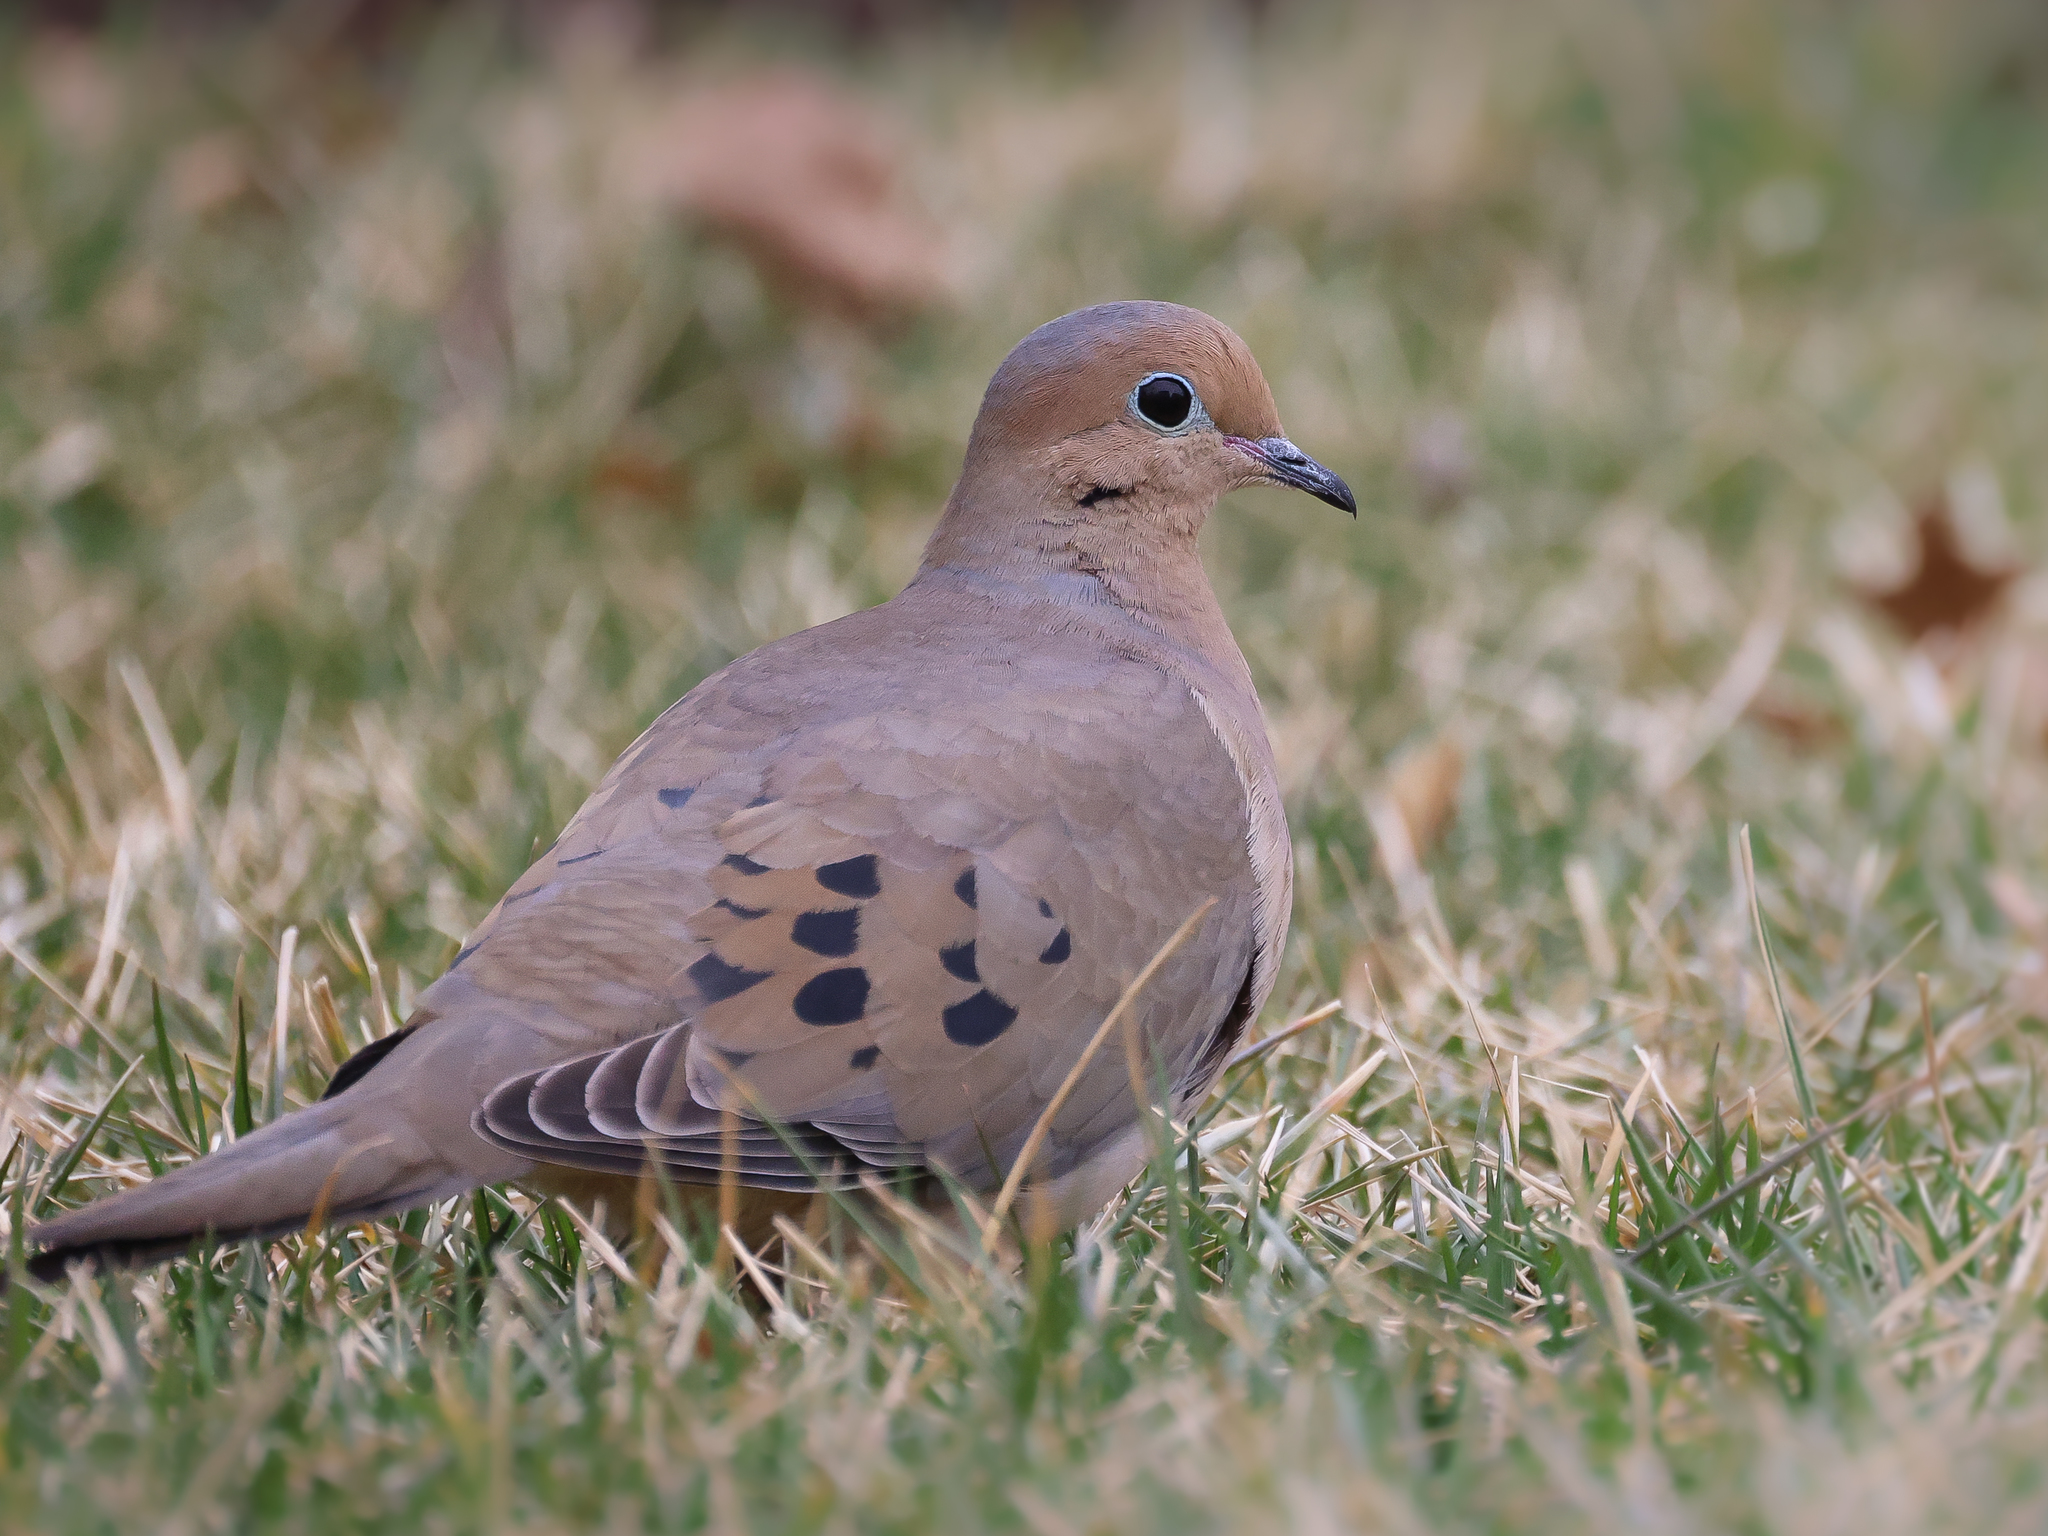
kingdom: Animalia
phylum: Chordata
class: Aves
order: Columbiformes
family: Columbidae
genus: Zenaida
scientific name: Zenaida macroura
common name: Mourning dove
